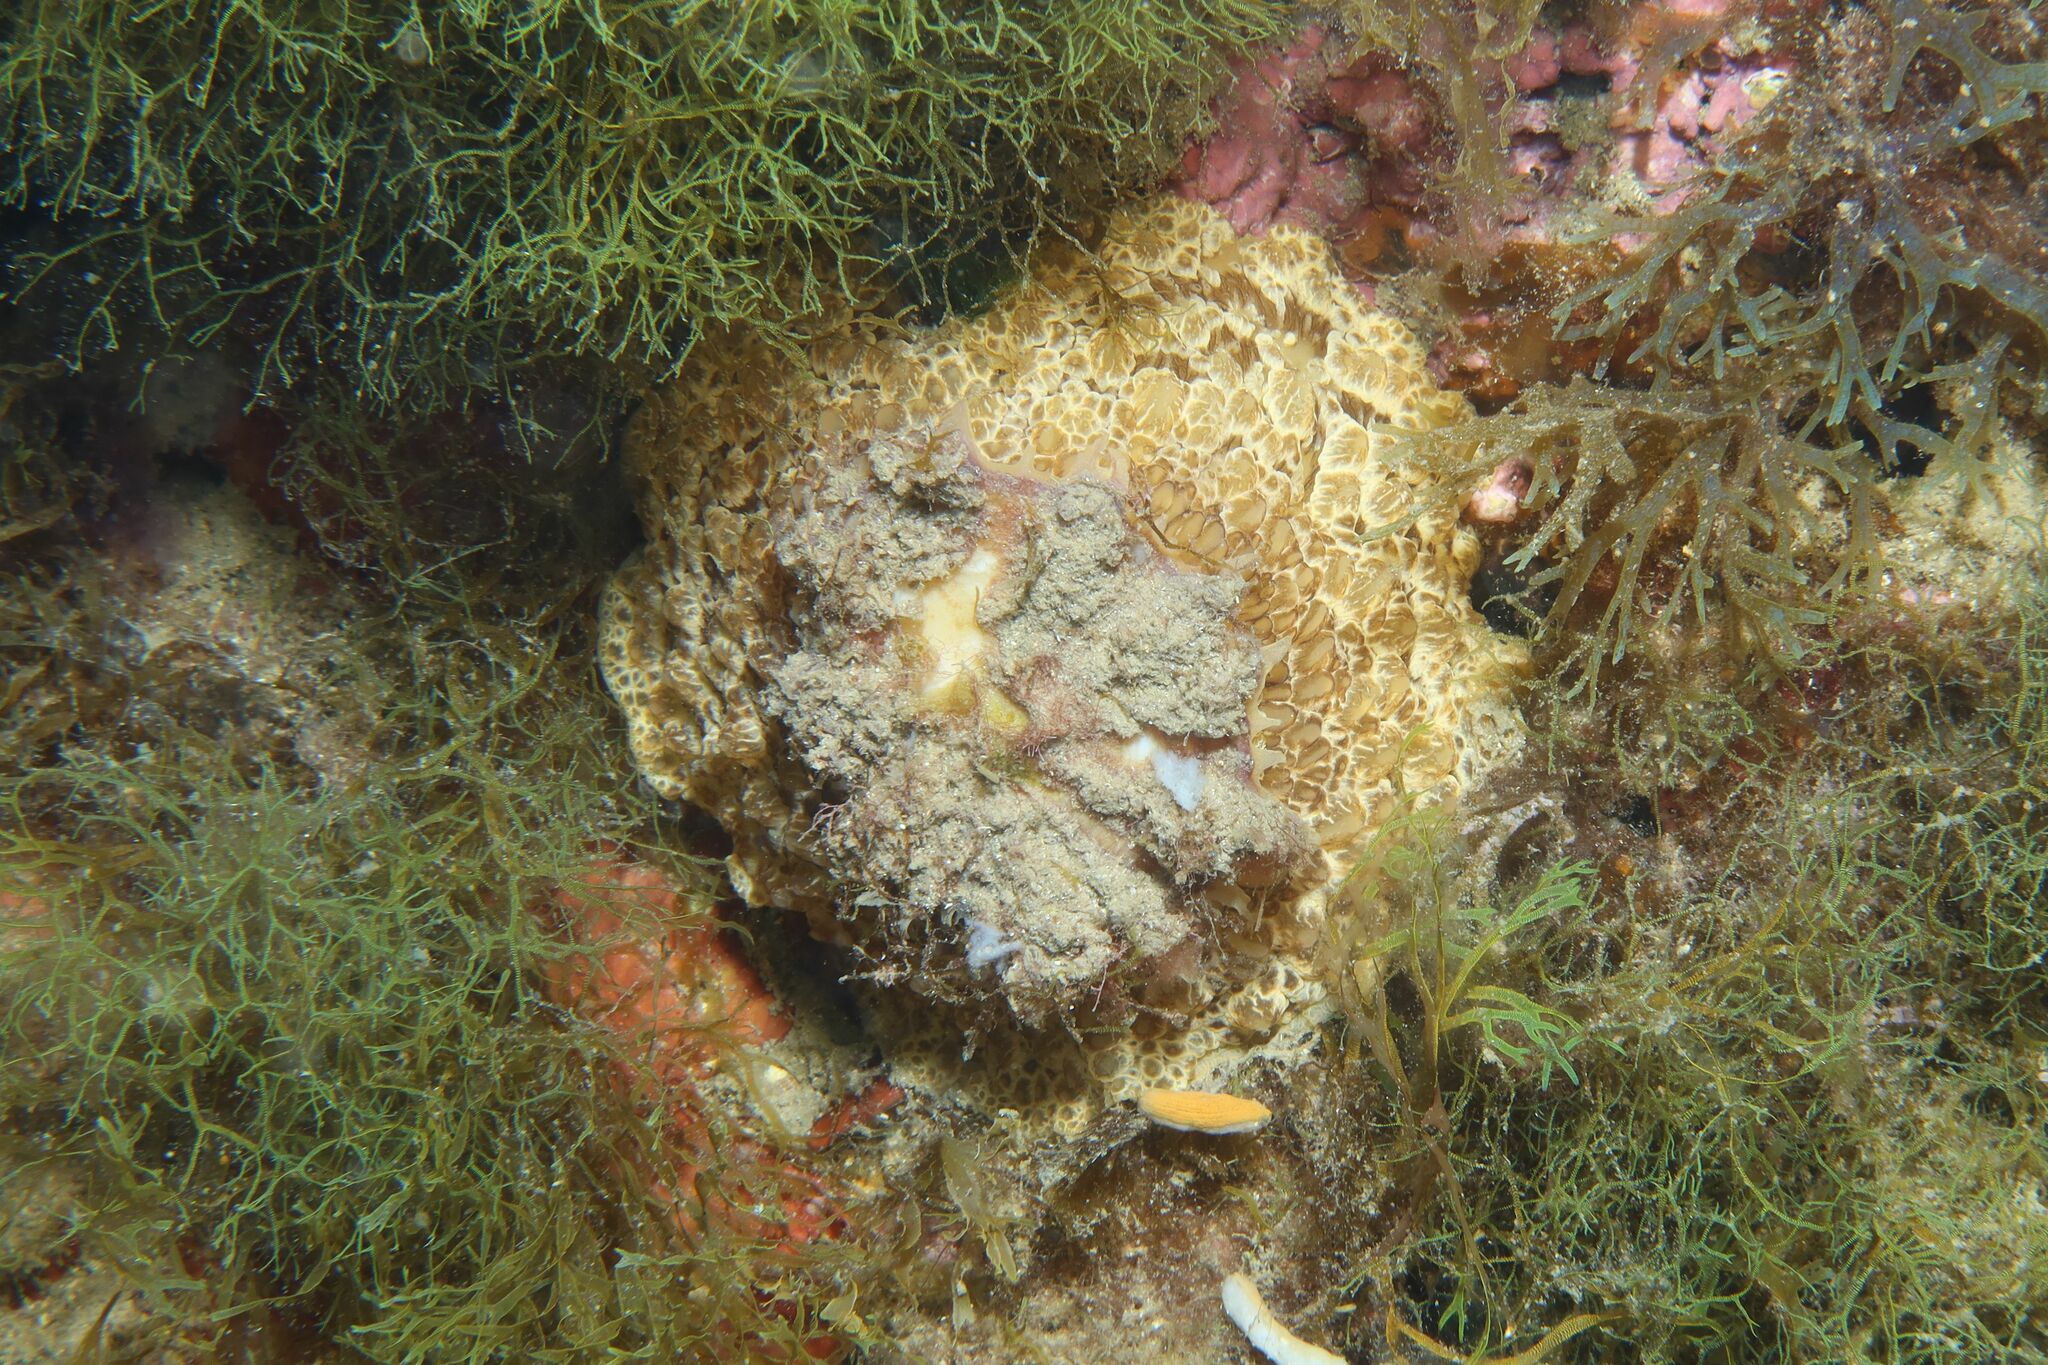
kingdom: Animalia
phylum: Mollusca
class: Gastropoda
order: Umbraculida
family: Umbraculidae
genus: Umbraculum
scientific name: Umbraculum umbraculum
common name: Atlantic umbrella slug
